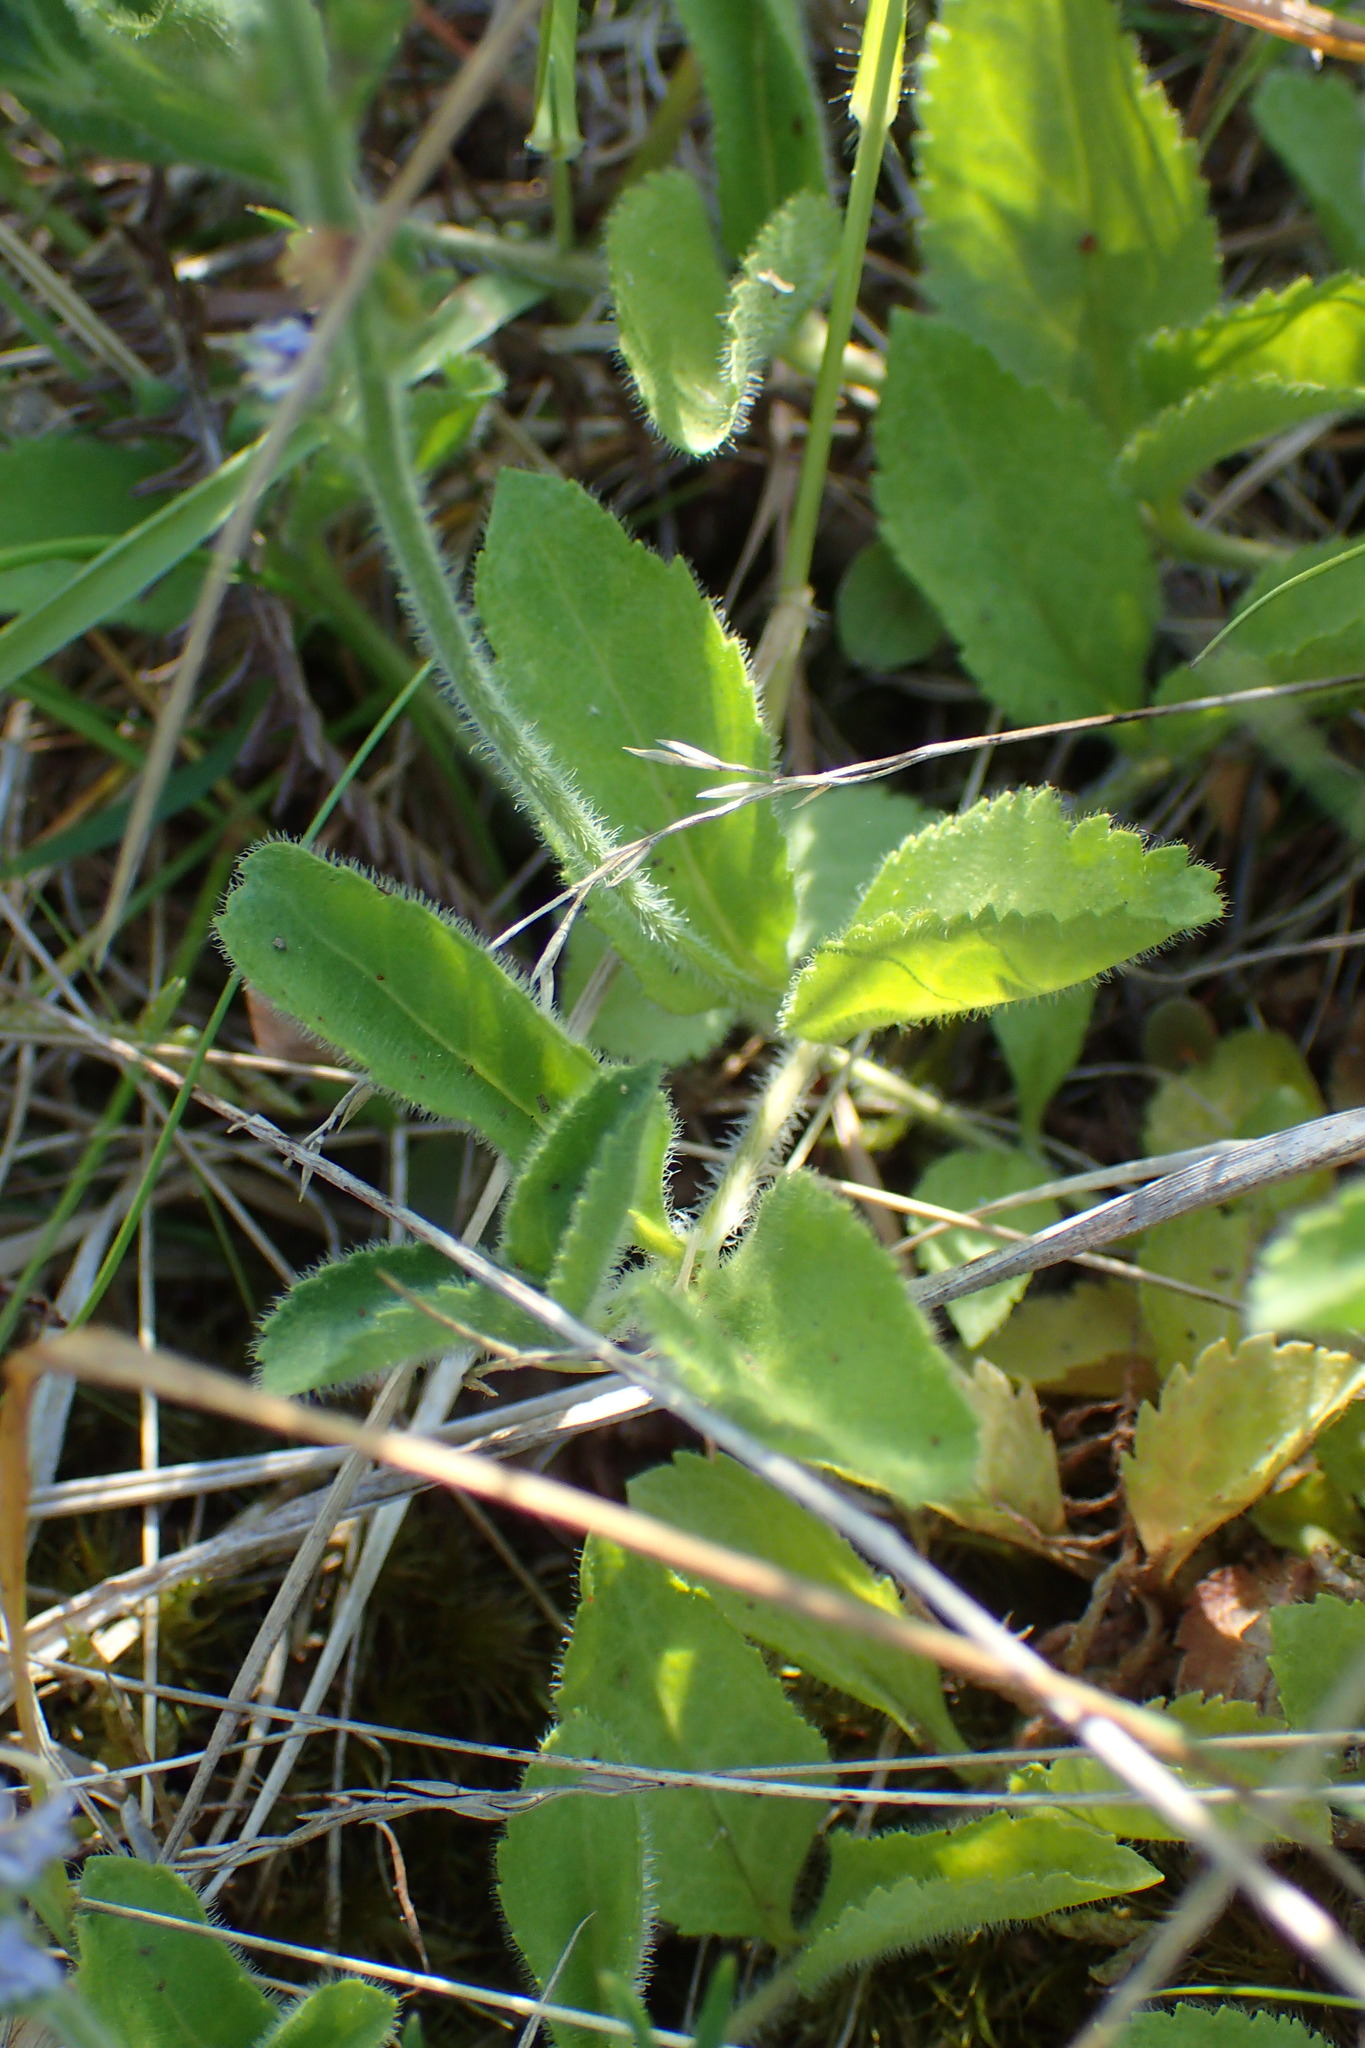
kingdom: Plantae
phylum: Tracheophyta
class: Magnoliopsida
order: Lamiales
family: Plantaginaceae
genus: Veronica
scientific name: Veronica officinalis
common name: Common speedwell
